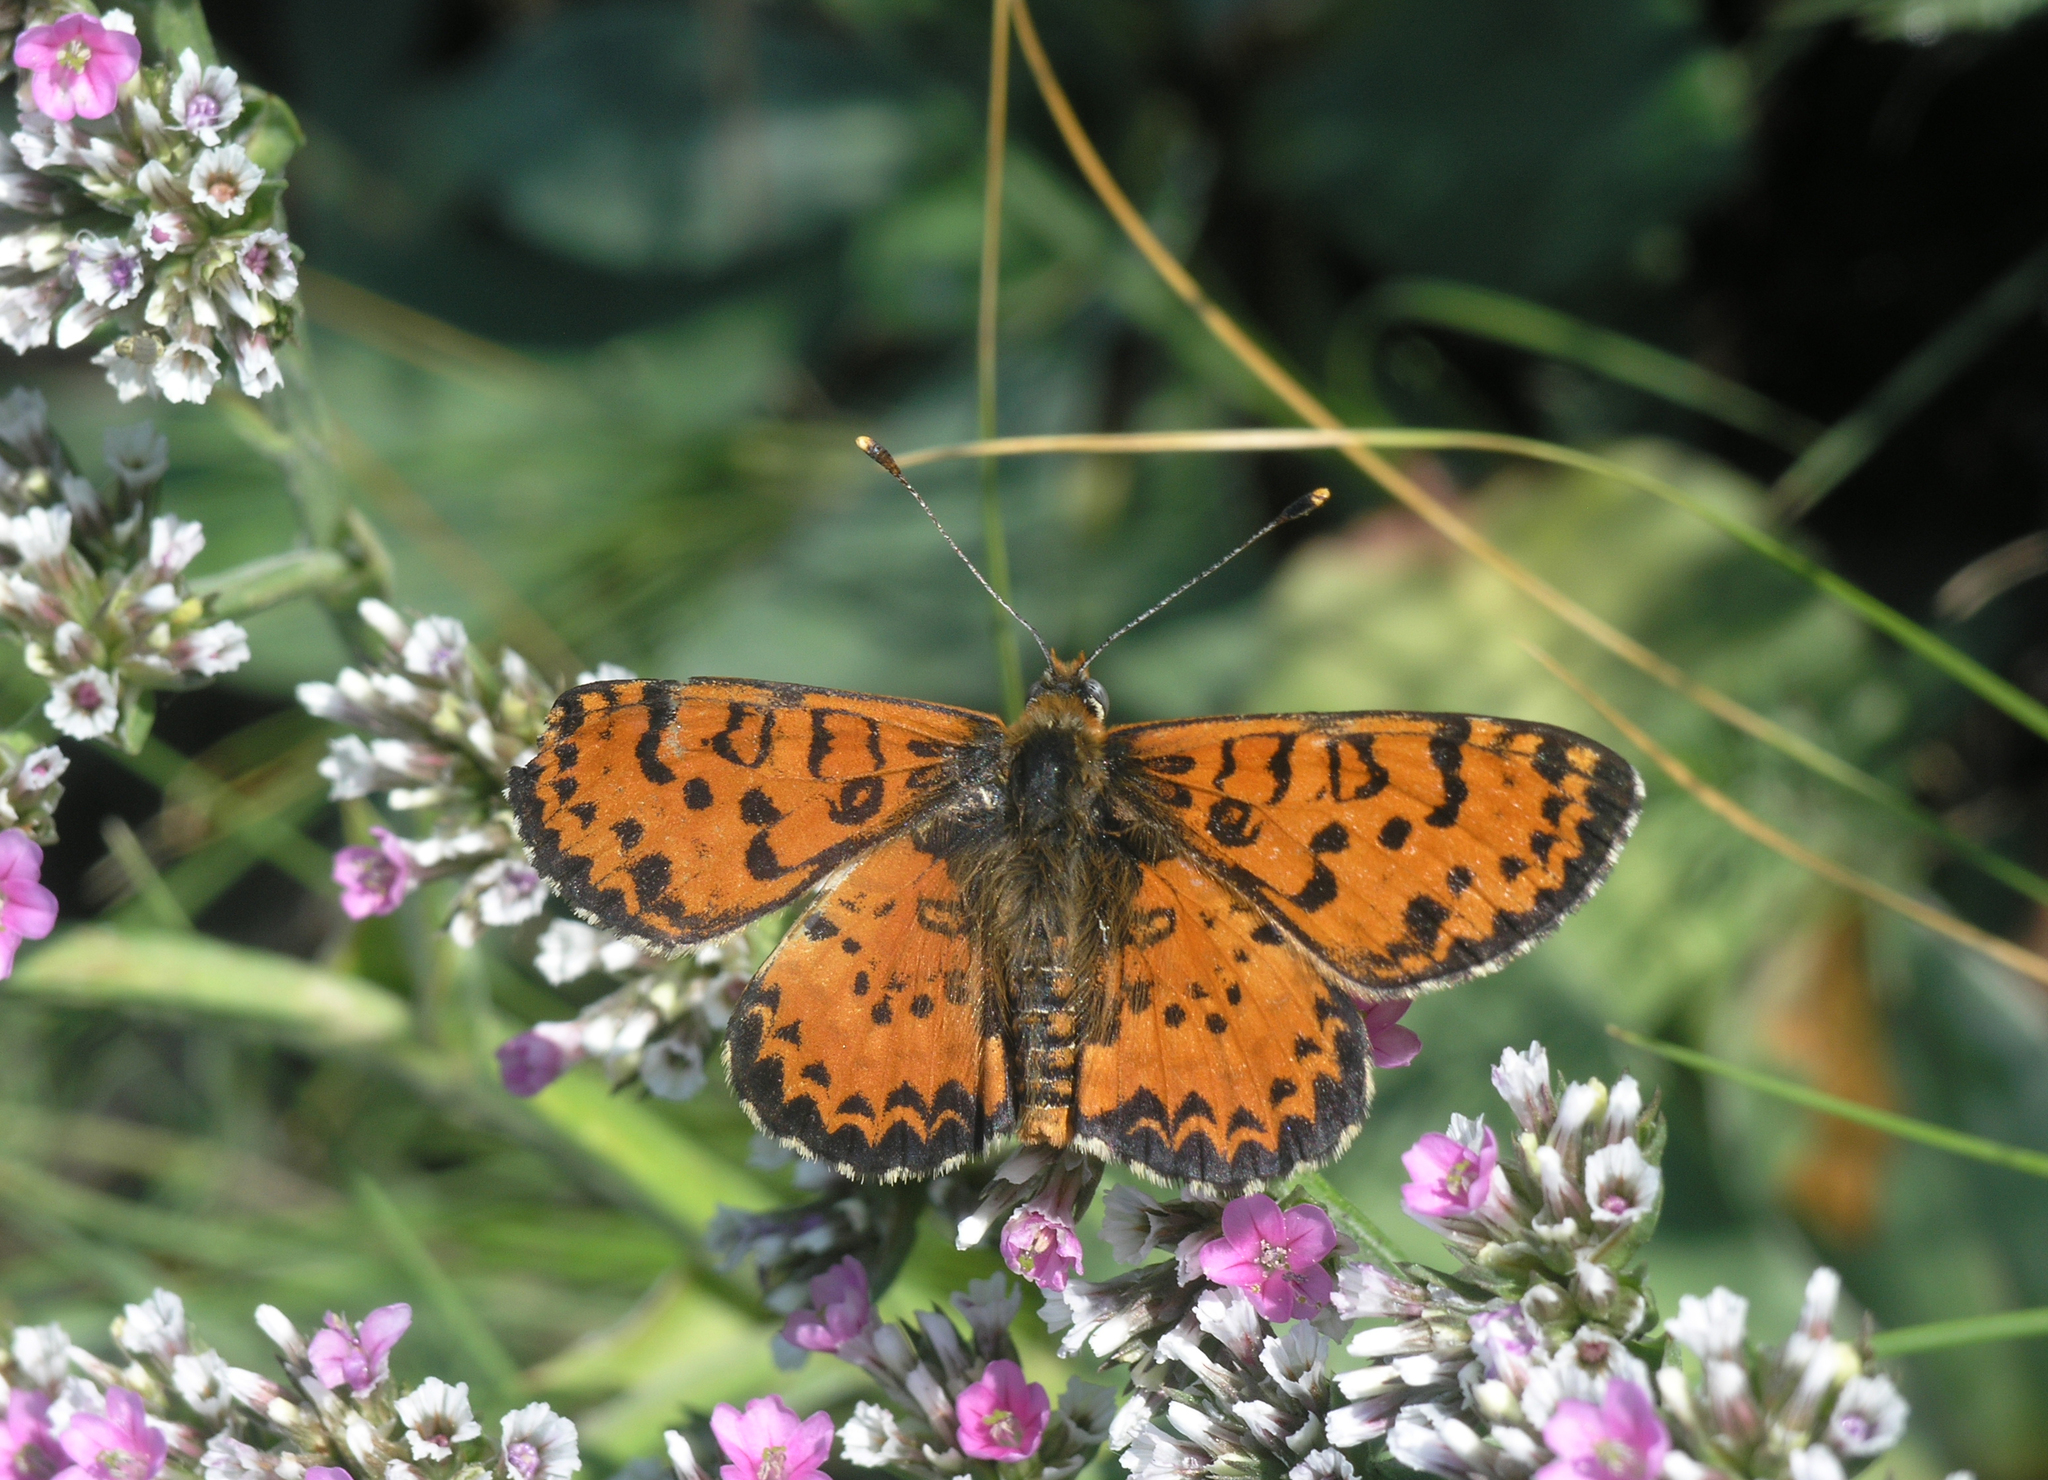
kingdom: Animalia
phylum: Arthropoda
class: Insecta
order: Lepidoptera
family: Nymphalidae
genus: Melitaea
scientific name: Melitaea didyma
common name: Spotted fritillary
